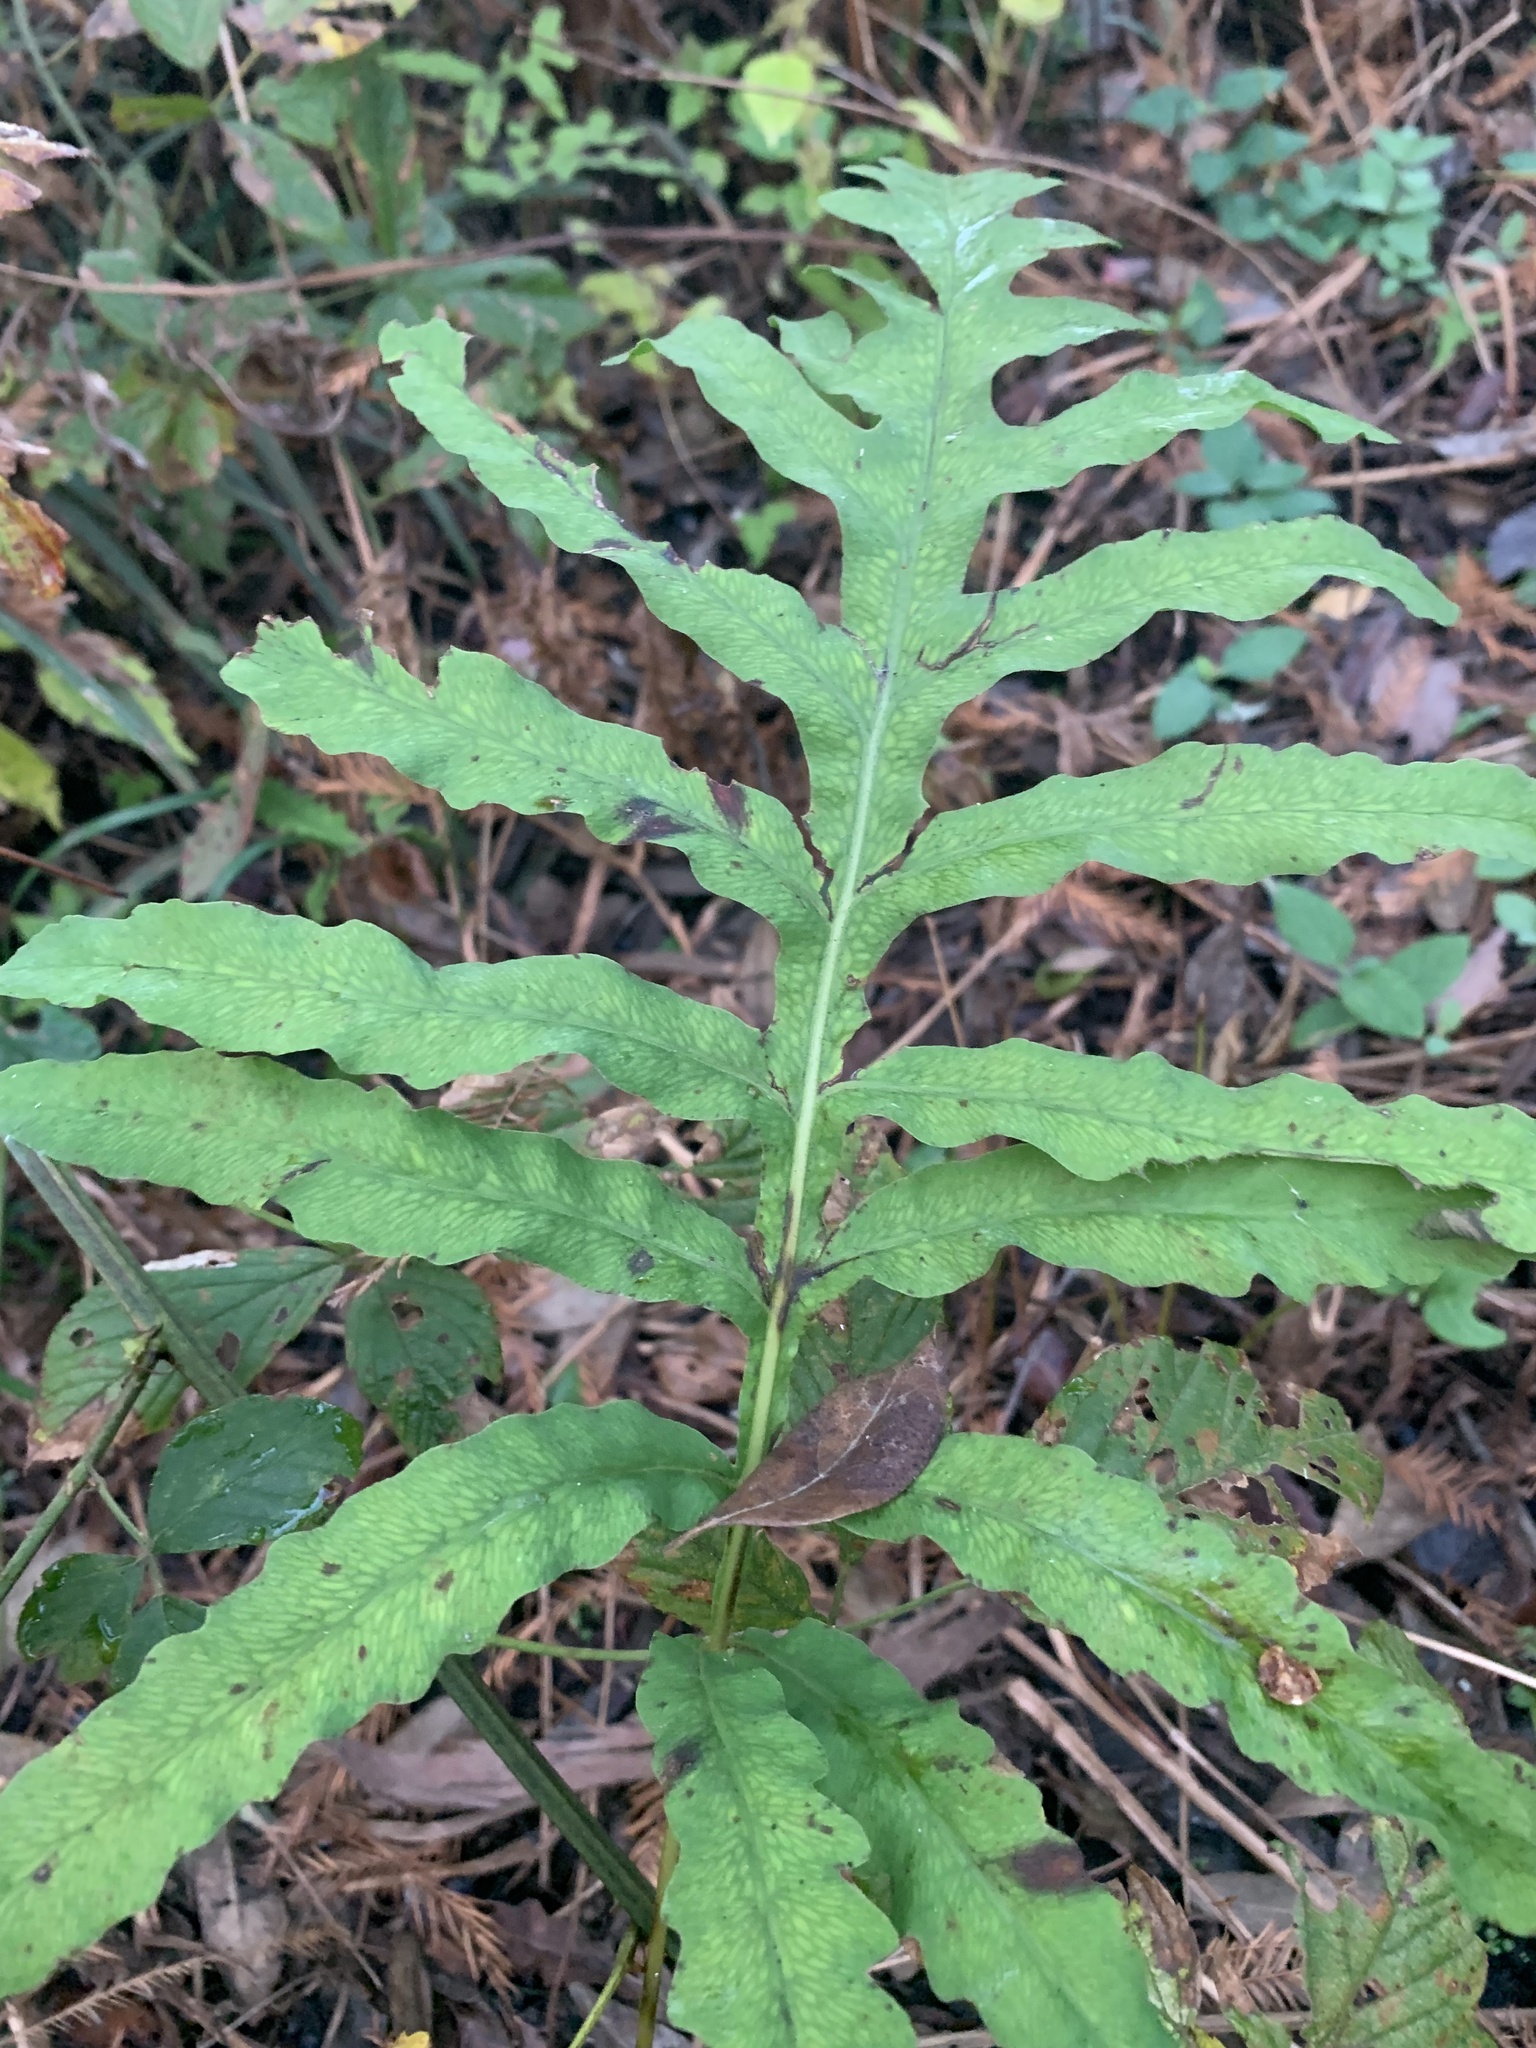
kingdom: Plantae
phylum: Tracheophyta
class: Polypodiopsida
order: Polypodiales
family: Onocleaceae
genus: Onoclea
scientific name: Onoclea sensibilis
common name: Sensitive fern
